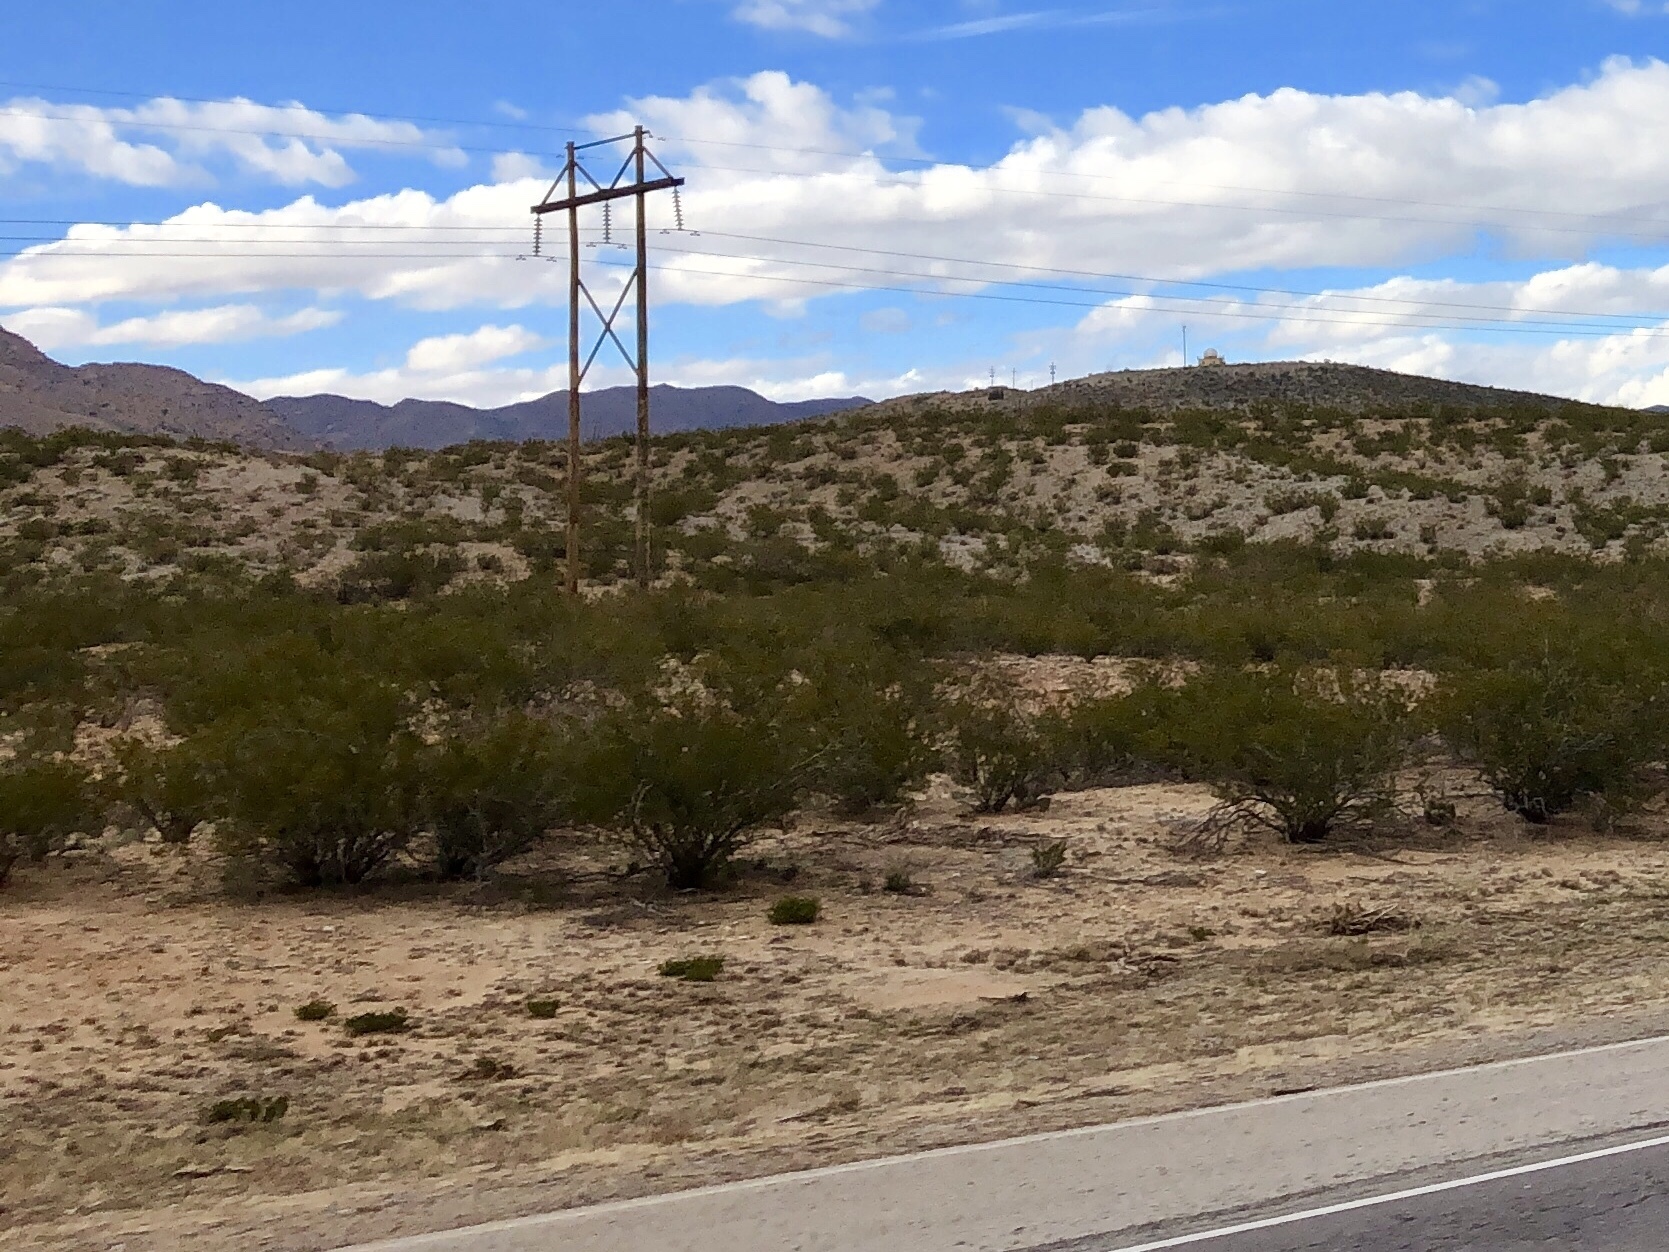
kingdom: Plantae
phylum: Tracheophyta
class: Magnoliopsida
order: Zygophyllales
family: Zygophyllaceae
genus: Larrea
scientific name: Larrea tridentata
